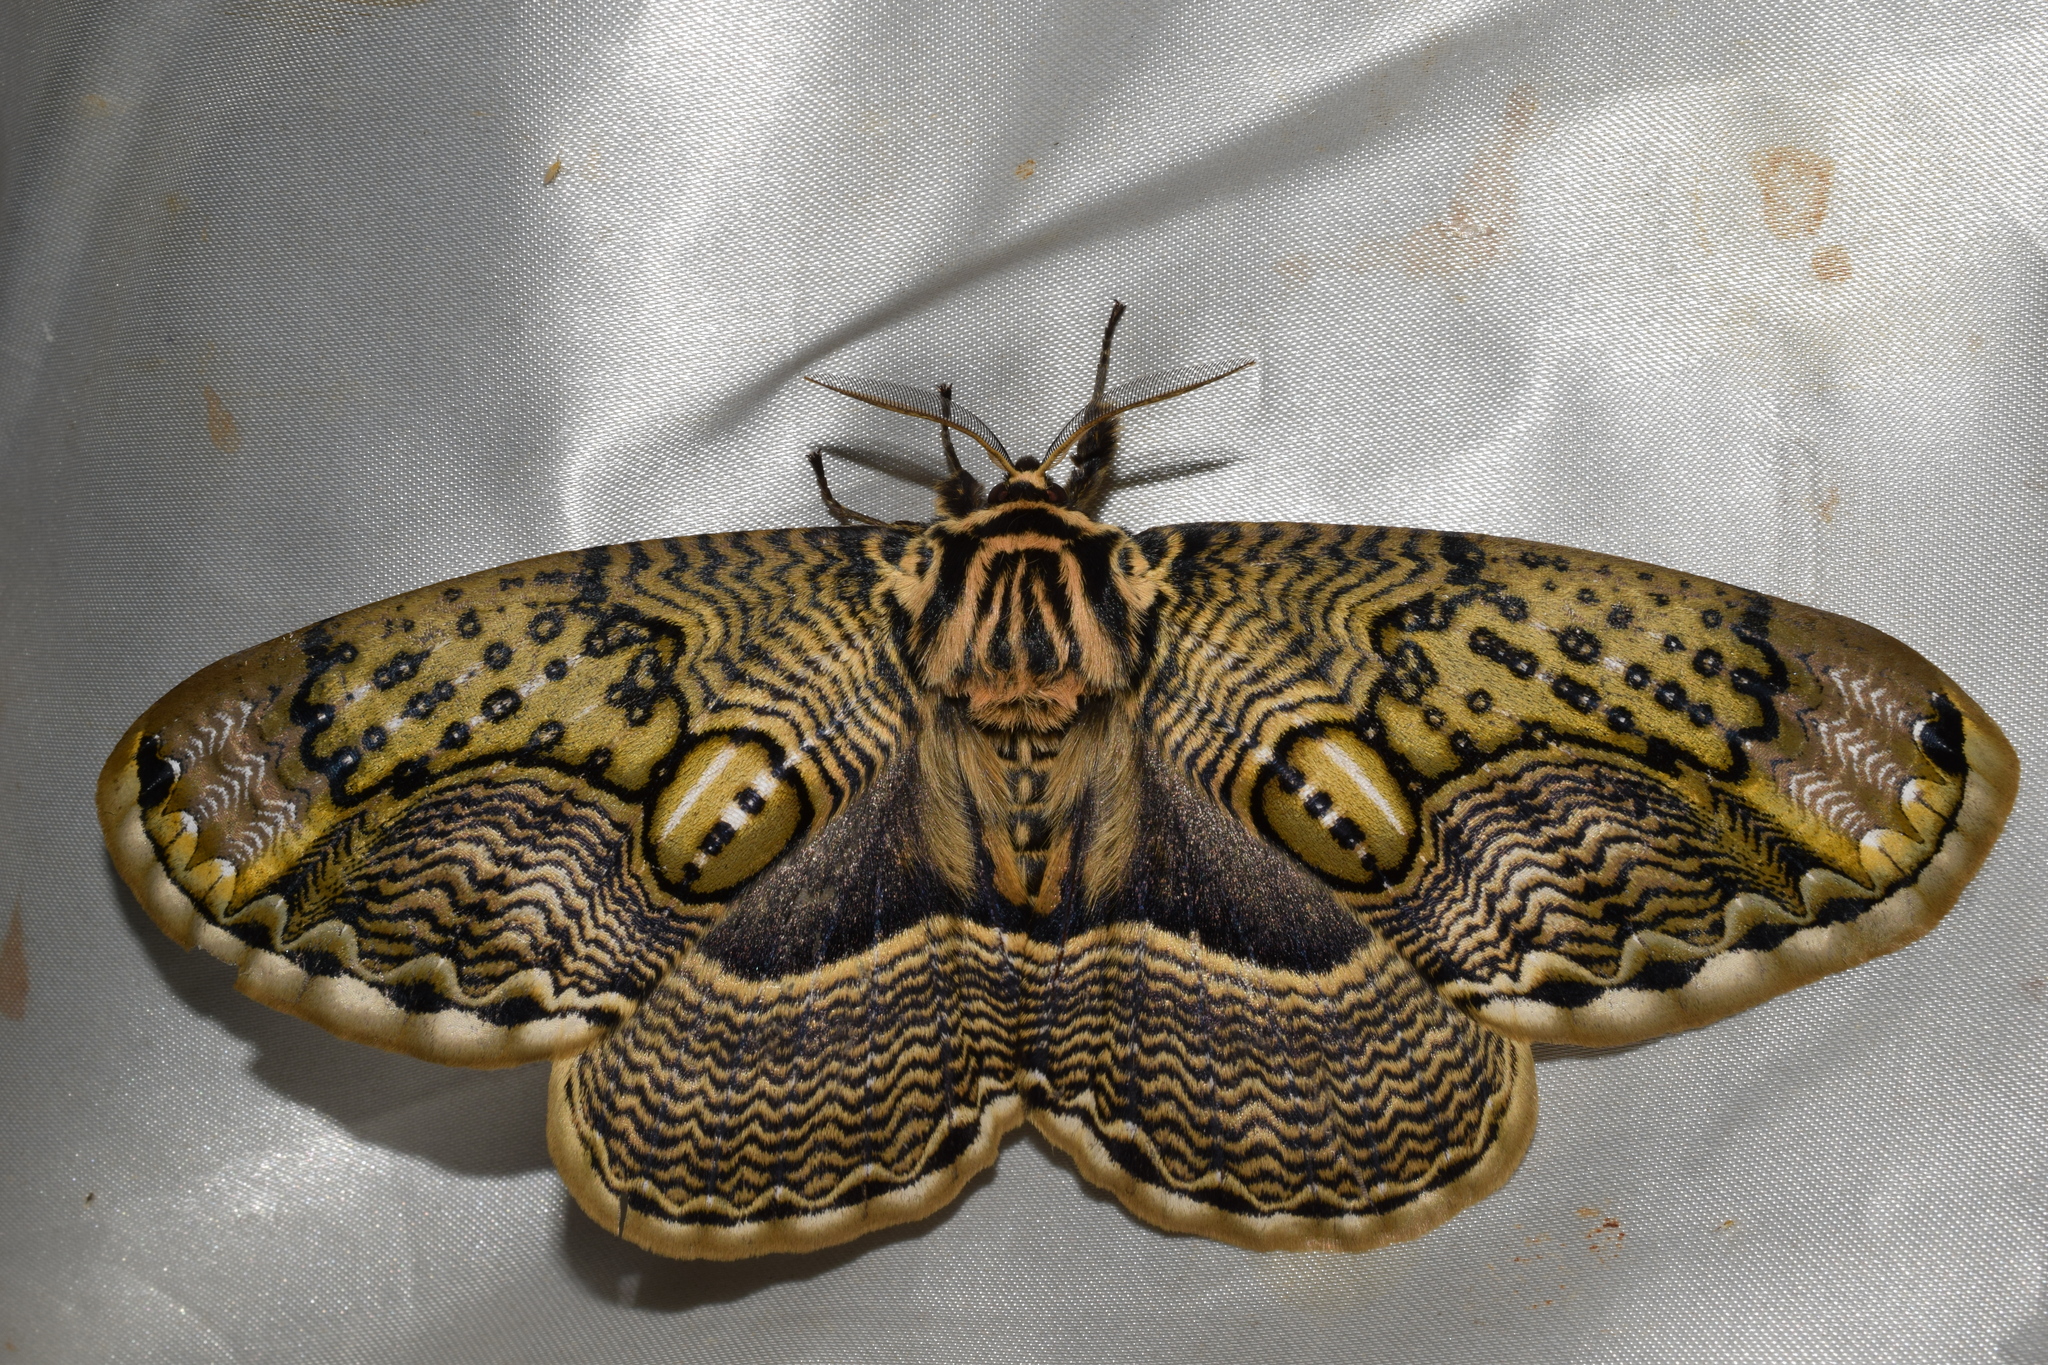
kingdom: Animalia
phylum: Arthropoda
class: Insecta
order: Lepidoptera
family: Brahmaeidae
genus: Brahmaea
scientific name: Brahmaea japonica
